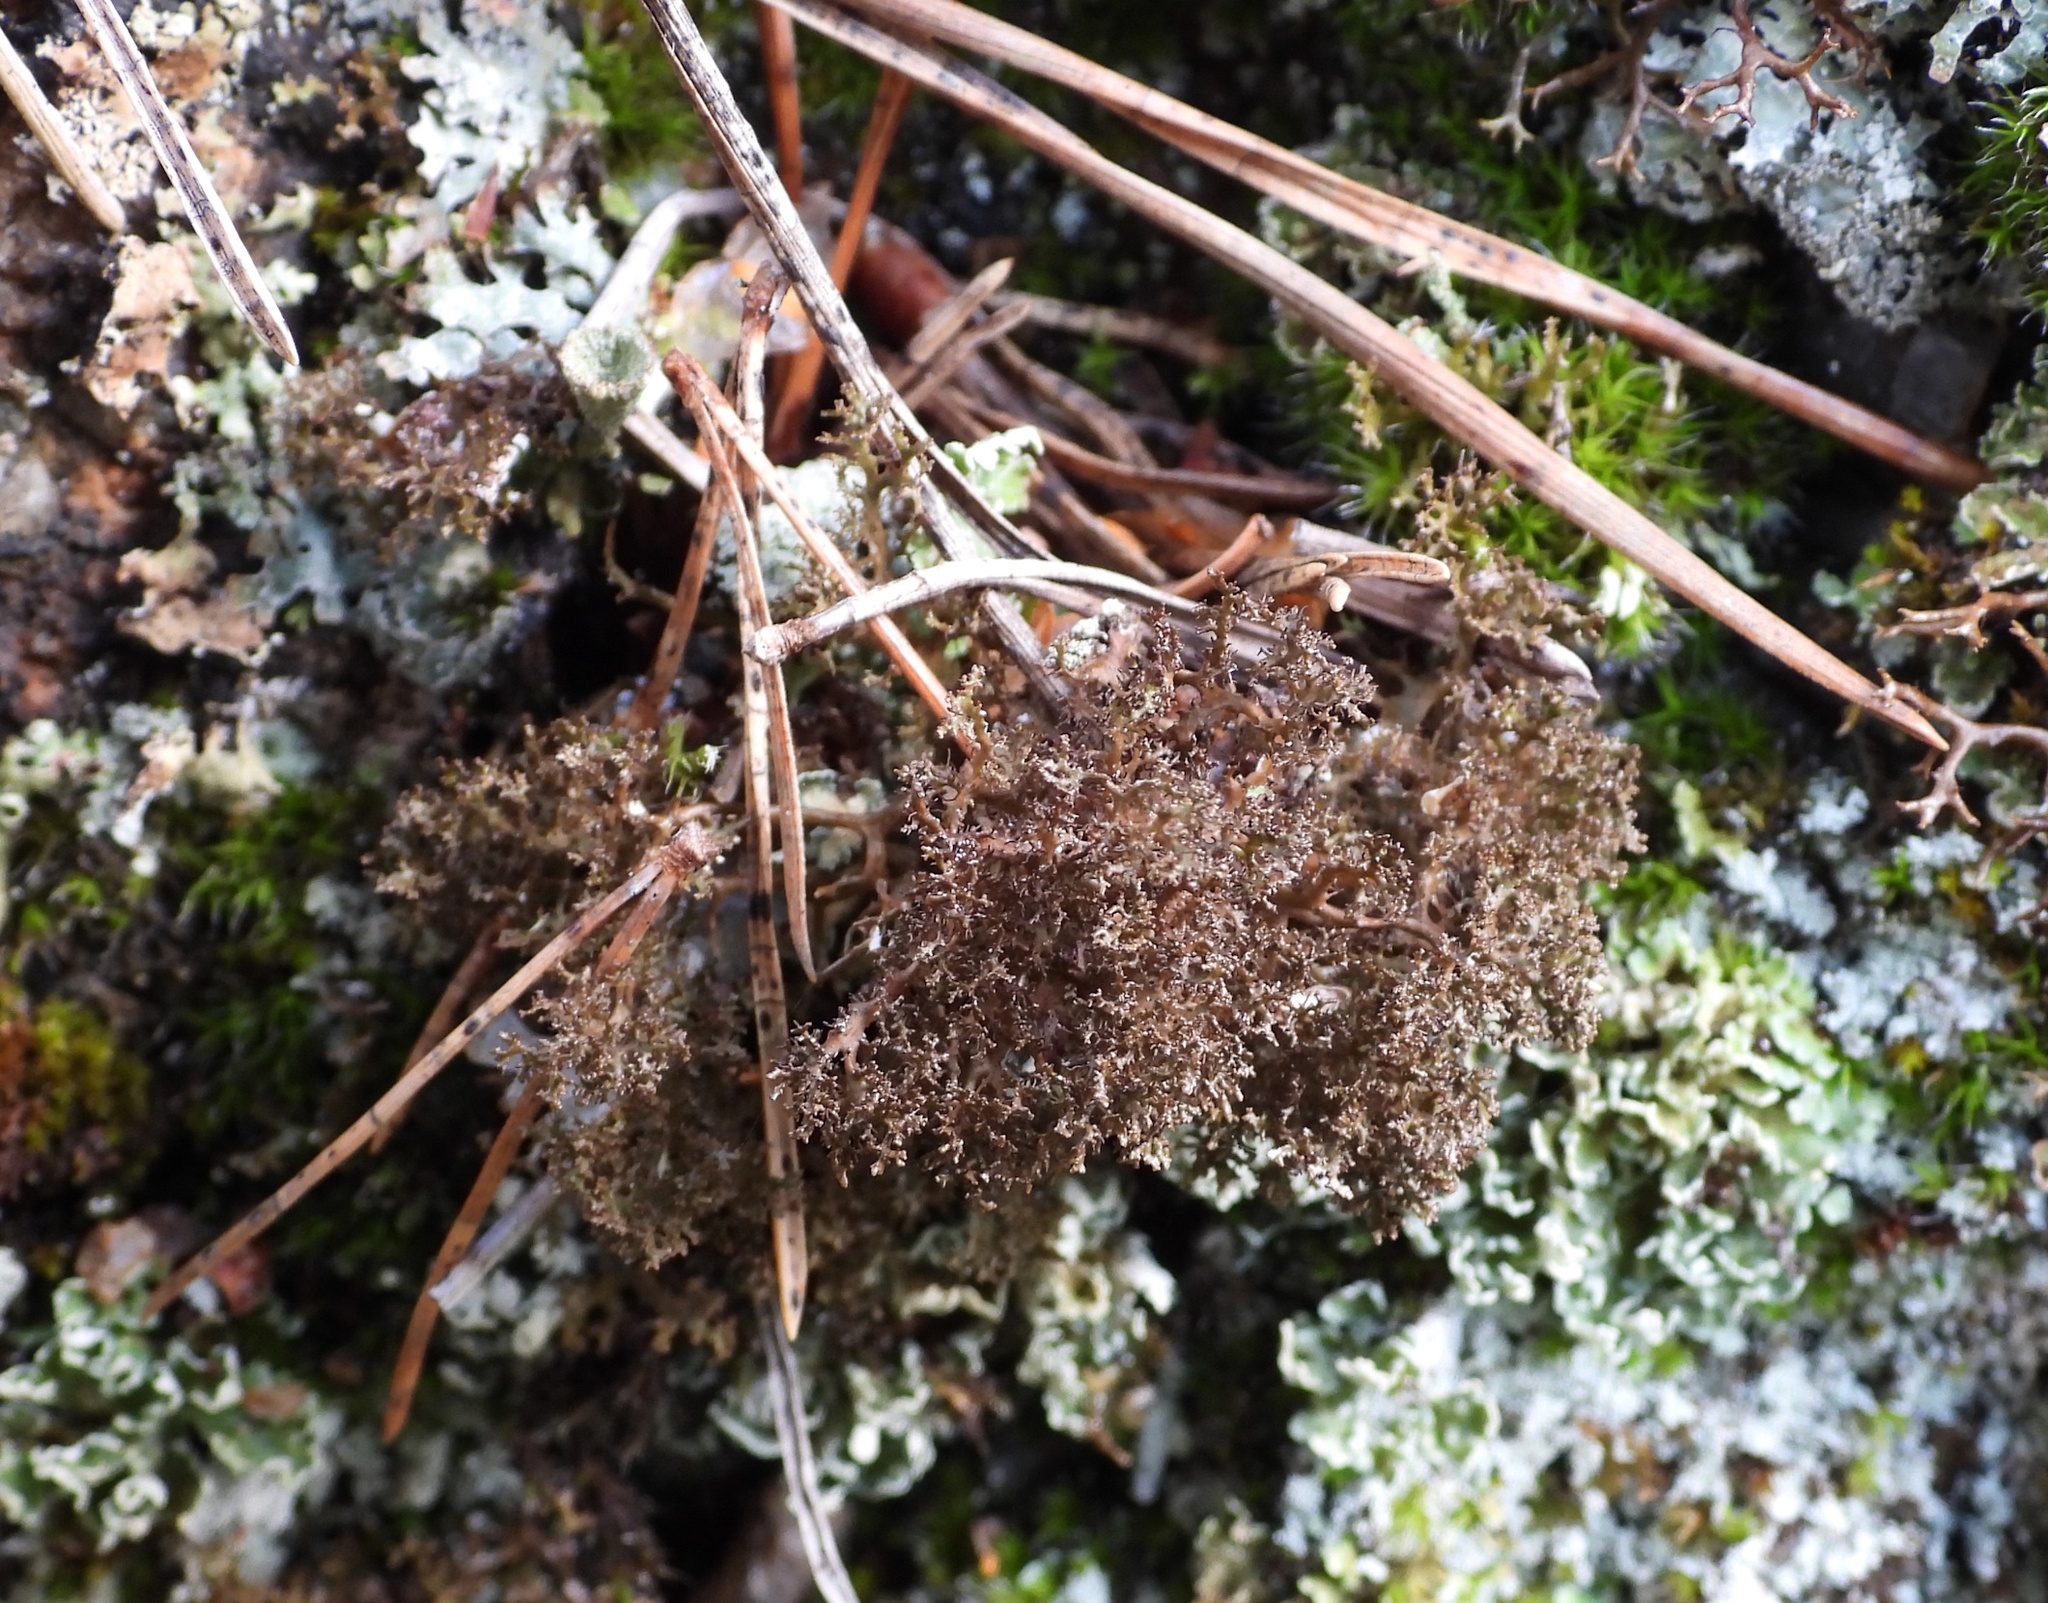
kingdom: Fungi
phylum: Ascomycota
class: Lecanoromycetes
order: Lecanorales
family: Parmeliaceae
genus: Cetraria
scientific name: Cetraria odontella
